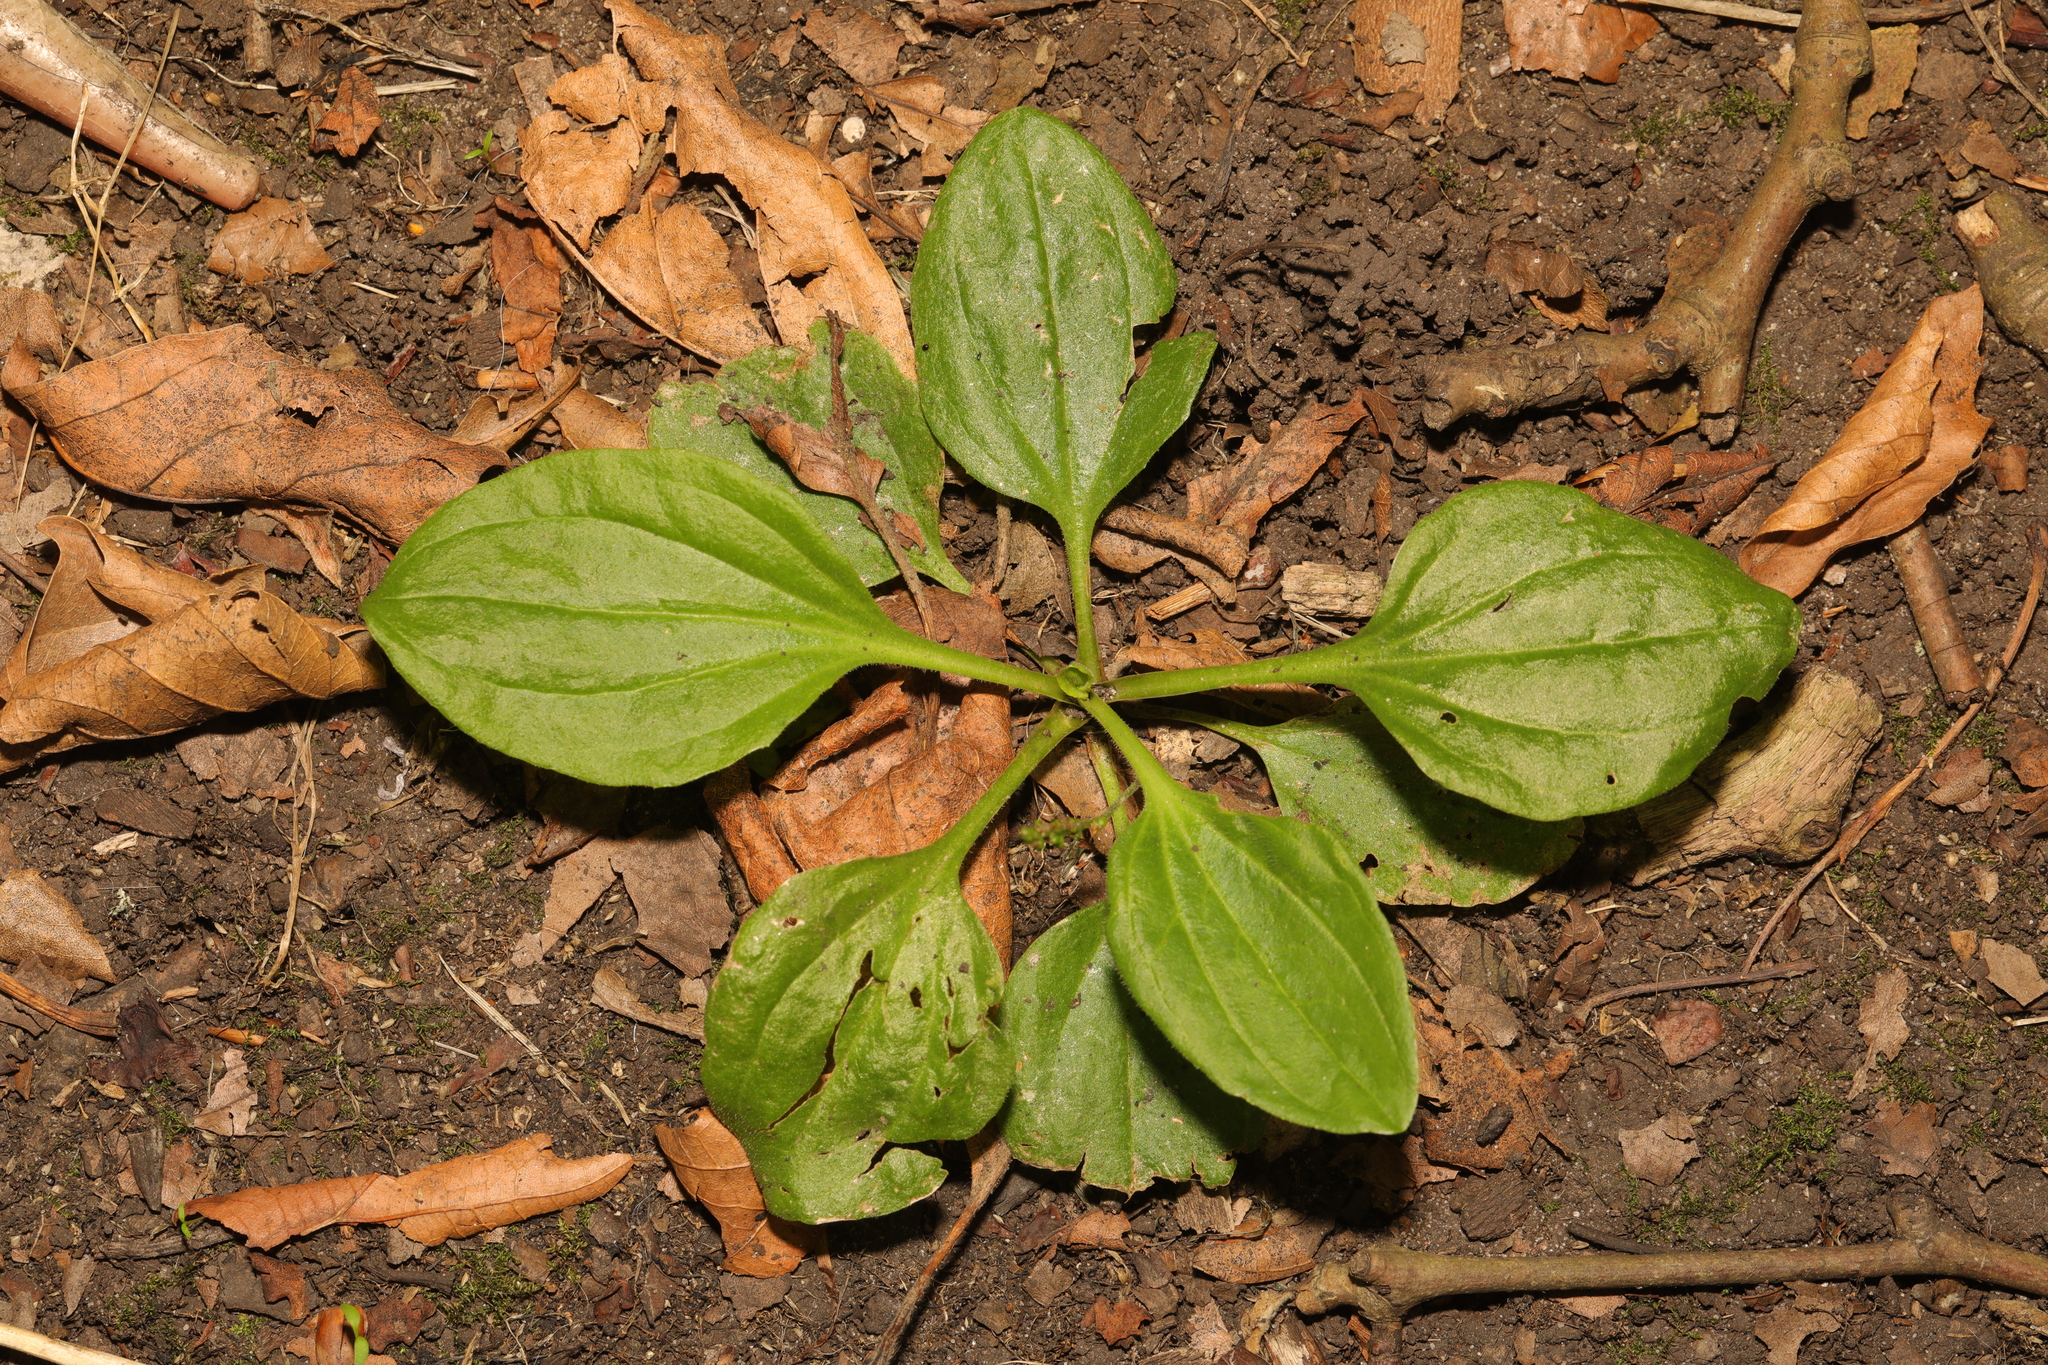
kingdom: Plantae
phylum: Tracheophyta
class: Magnoliopsida
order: Lamiales
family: Plantaginaceae
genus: Plantago
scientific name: Plantago major
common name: Common plantain
